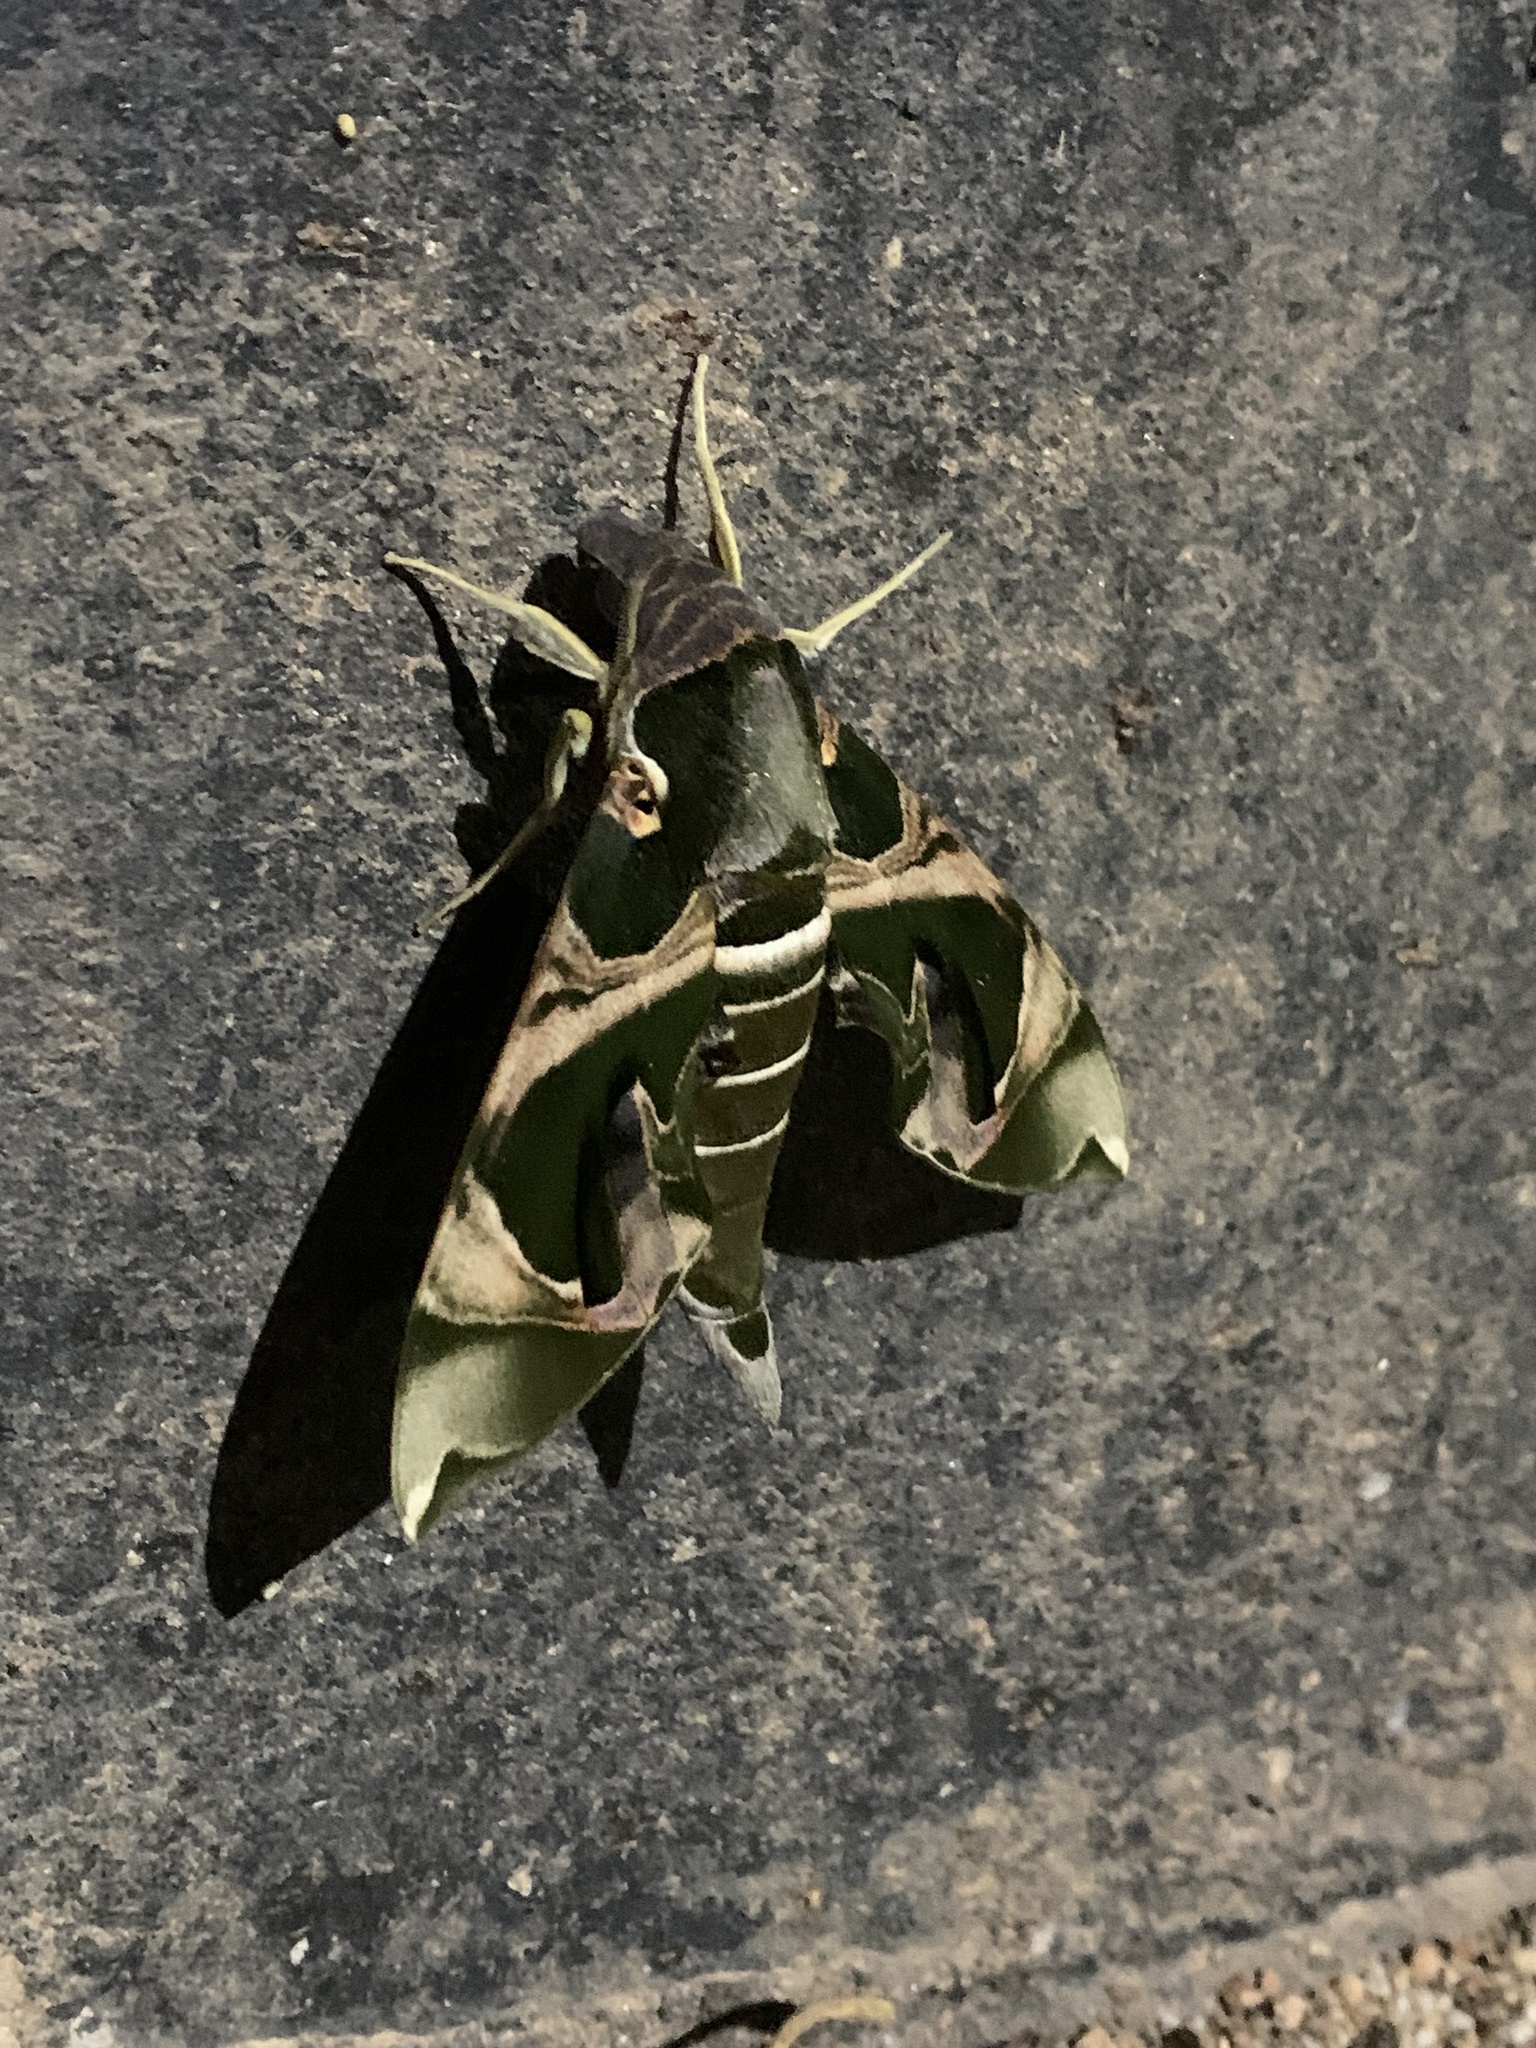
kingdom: Animalia
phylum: Arthropoda
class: Insecta
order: Lepidoptera
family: Sphingidae
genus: Daphnis
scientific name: Daphnis hypothous
